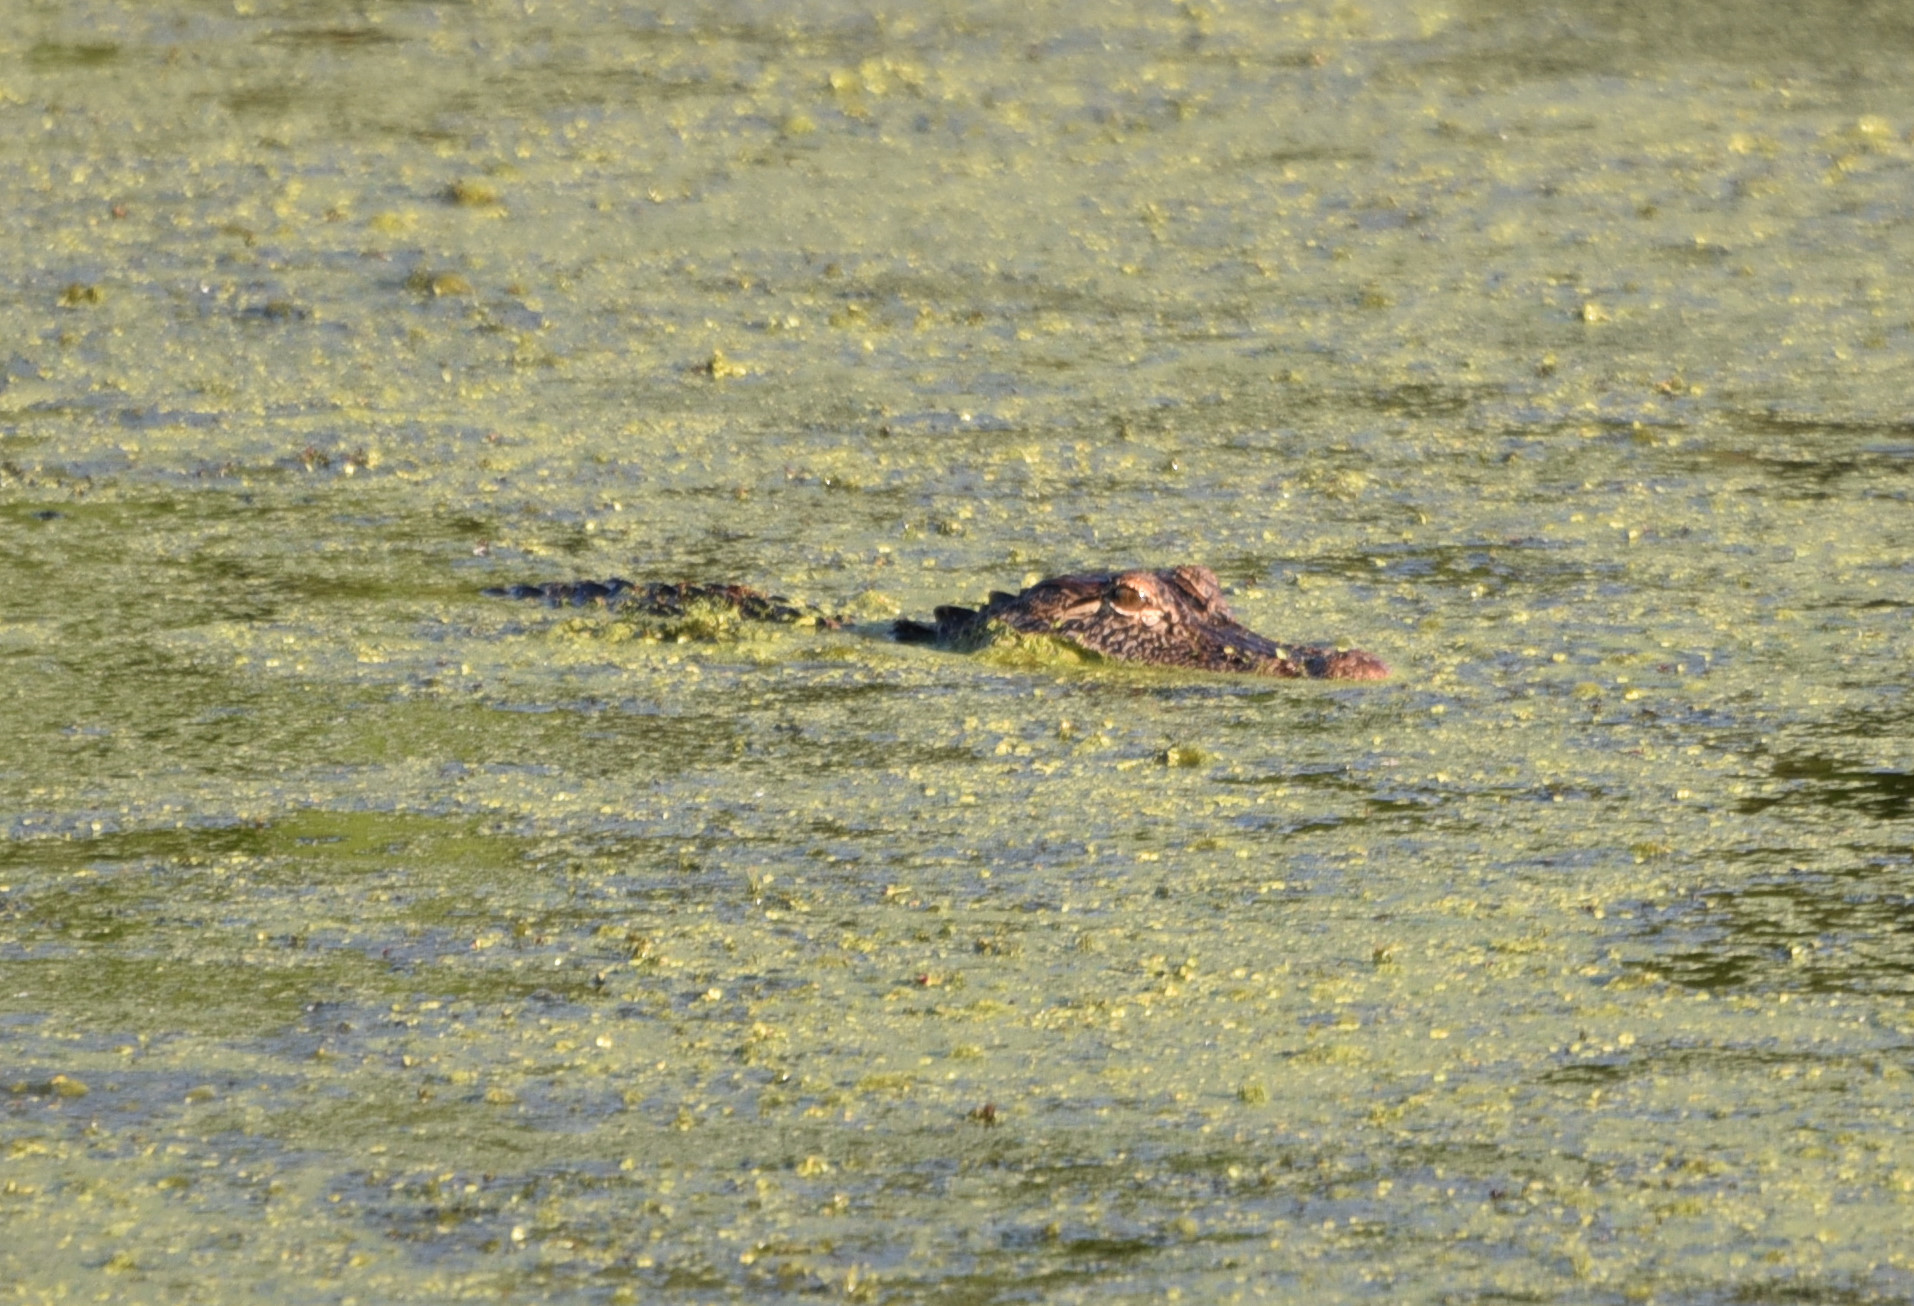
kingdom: Animalia
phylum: Chordata
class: Crocodylia
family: Alligatoridae
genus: Alligator
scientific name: Alligator mississippiensis
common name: American alligator
